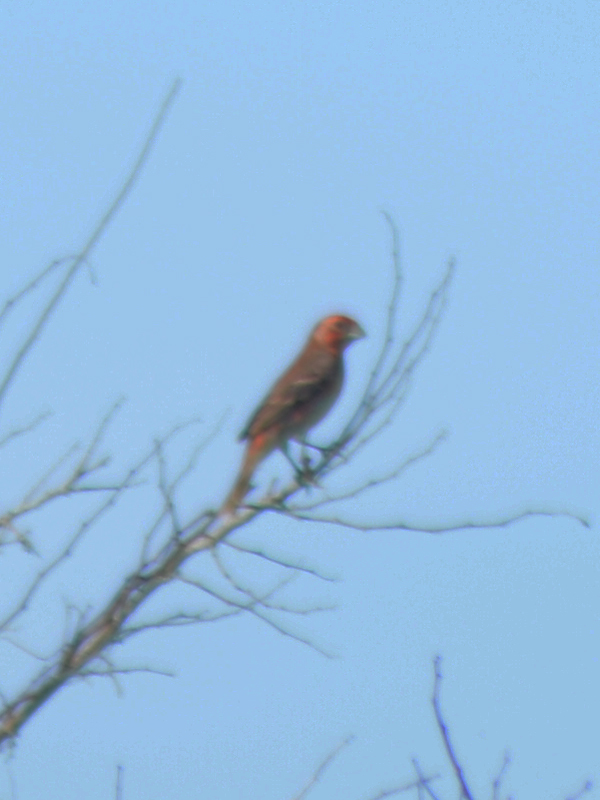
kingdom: Animalia
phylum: Chordata
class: Aves
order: Passeriformes
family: Fringillidae
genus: Haemorhous
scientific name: Haemorhous mexicanus
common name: House finch
